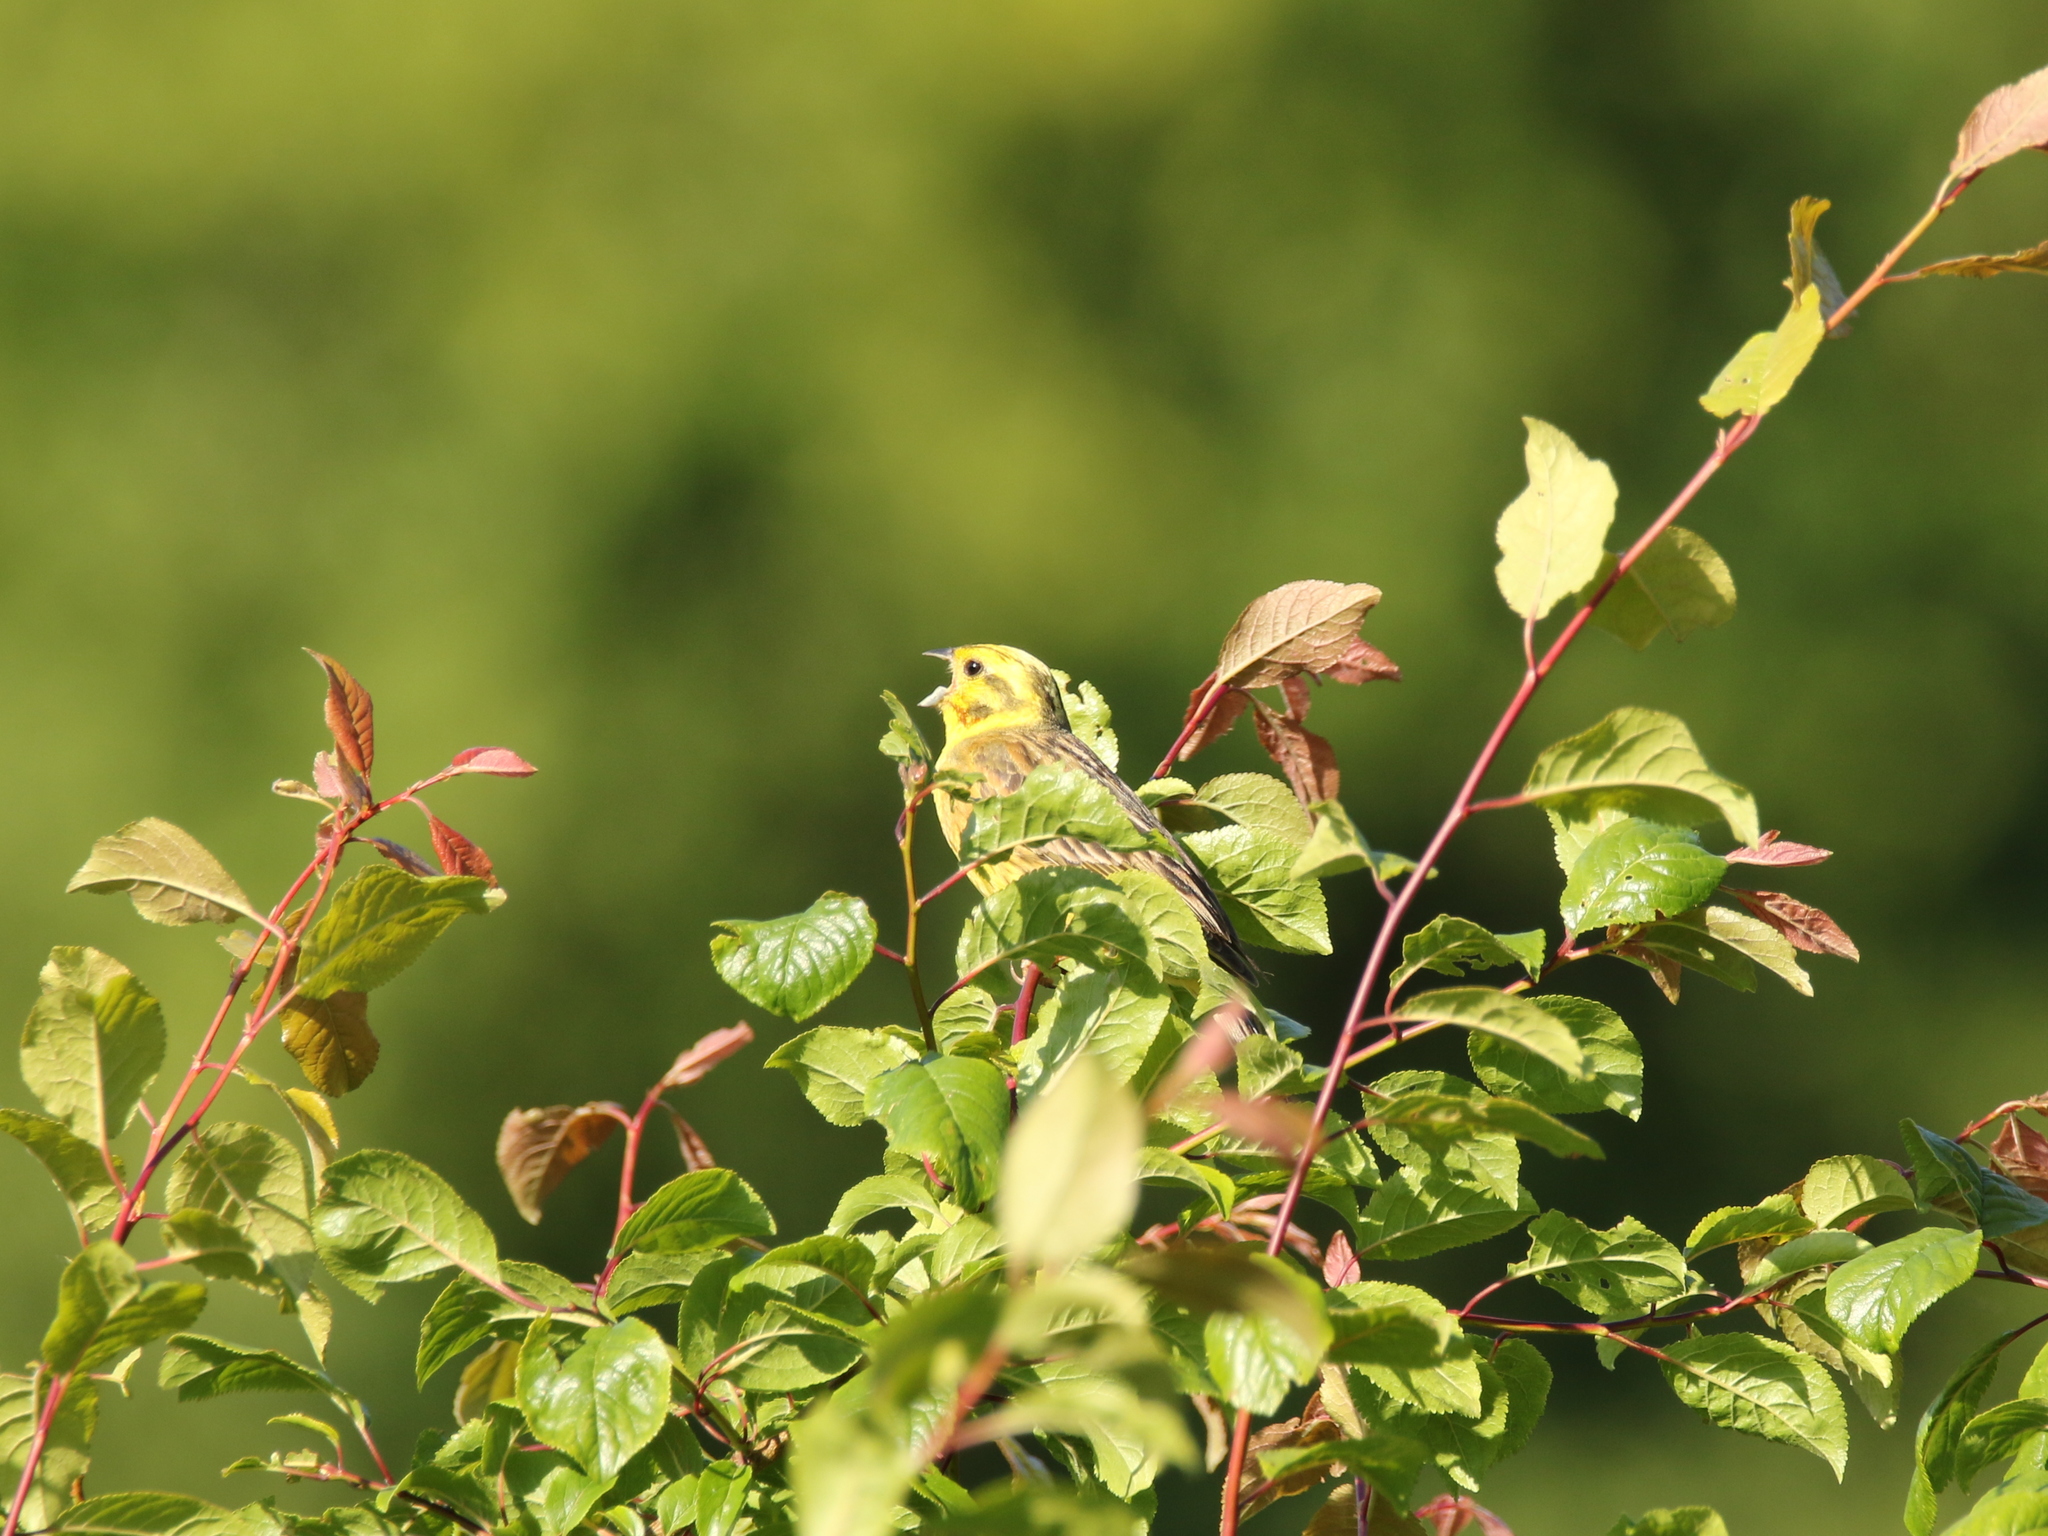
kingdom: Animalia
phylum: Chordata
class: Aves
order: Passeriformes
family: Emberizidae
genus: Emberiza
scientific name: Emberiza citrinella
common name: Yellowhammer
